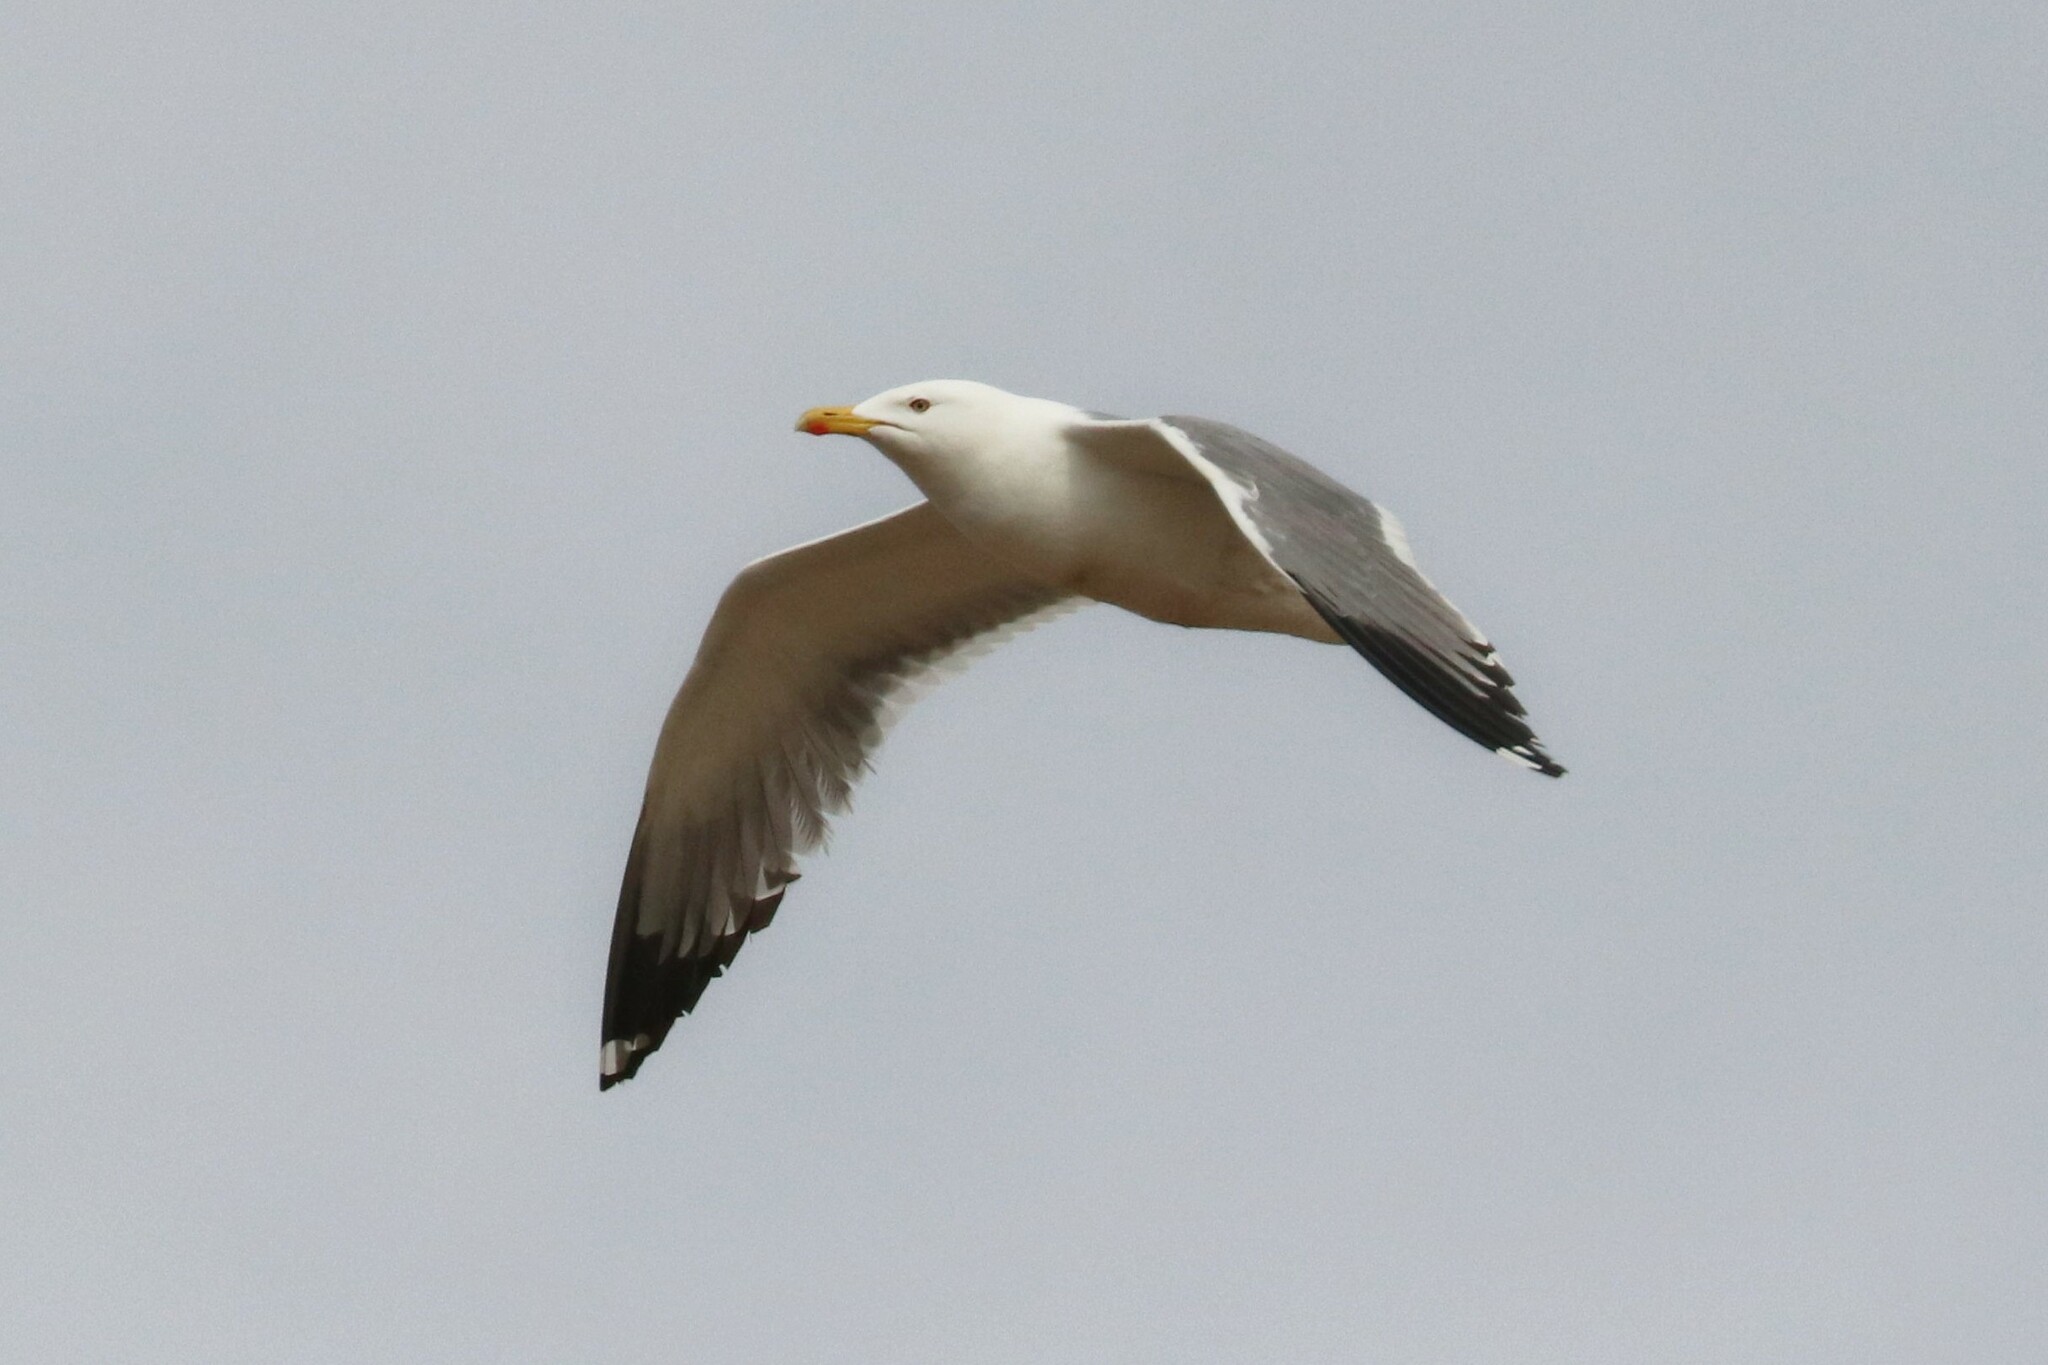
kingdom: Animalia
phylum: Chordata
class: Aves
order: Charadriiformes
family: Laridae
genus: Larus
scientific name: Larus fuscus
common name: Lesser black-backed gull
